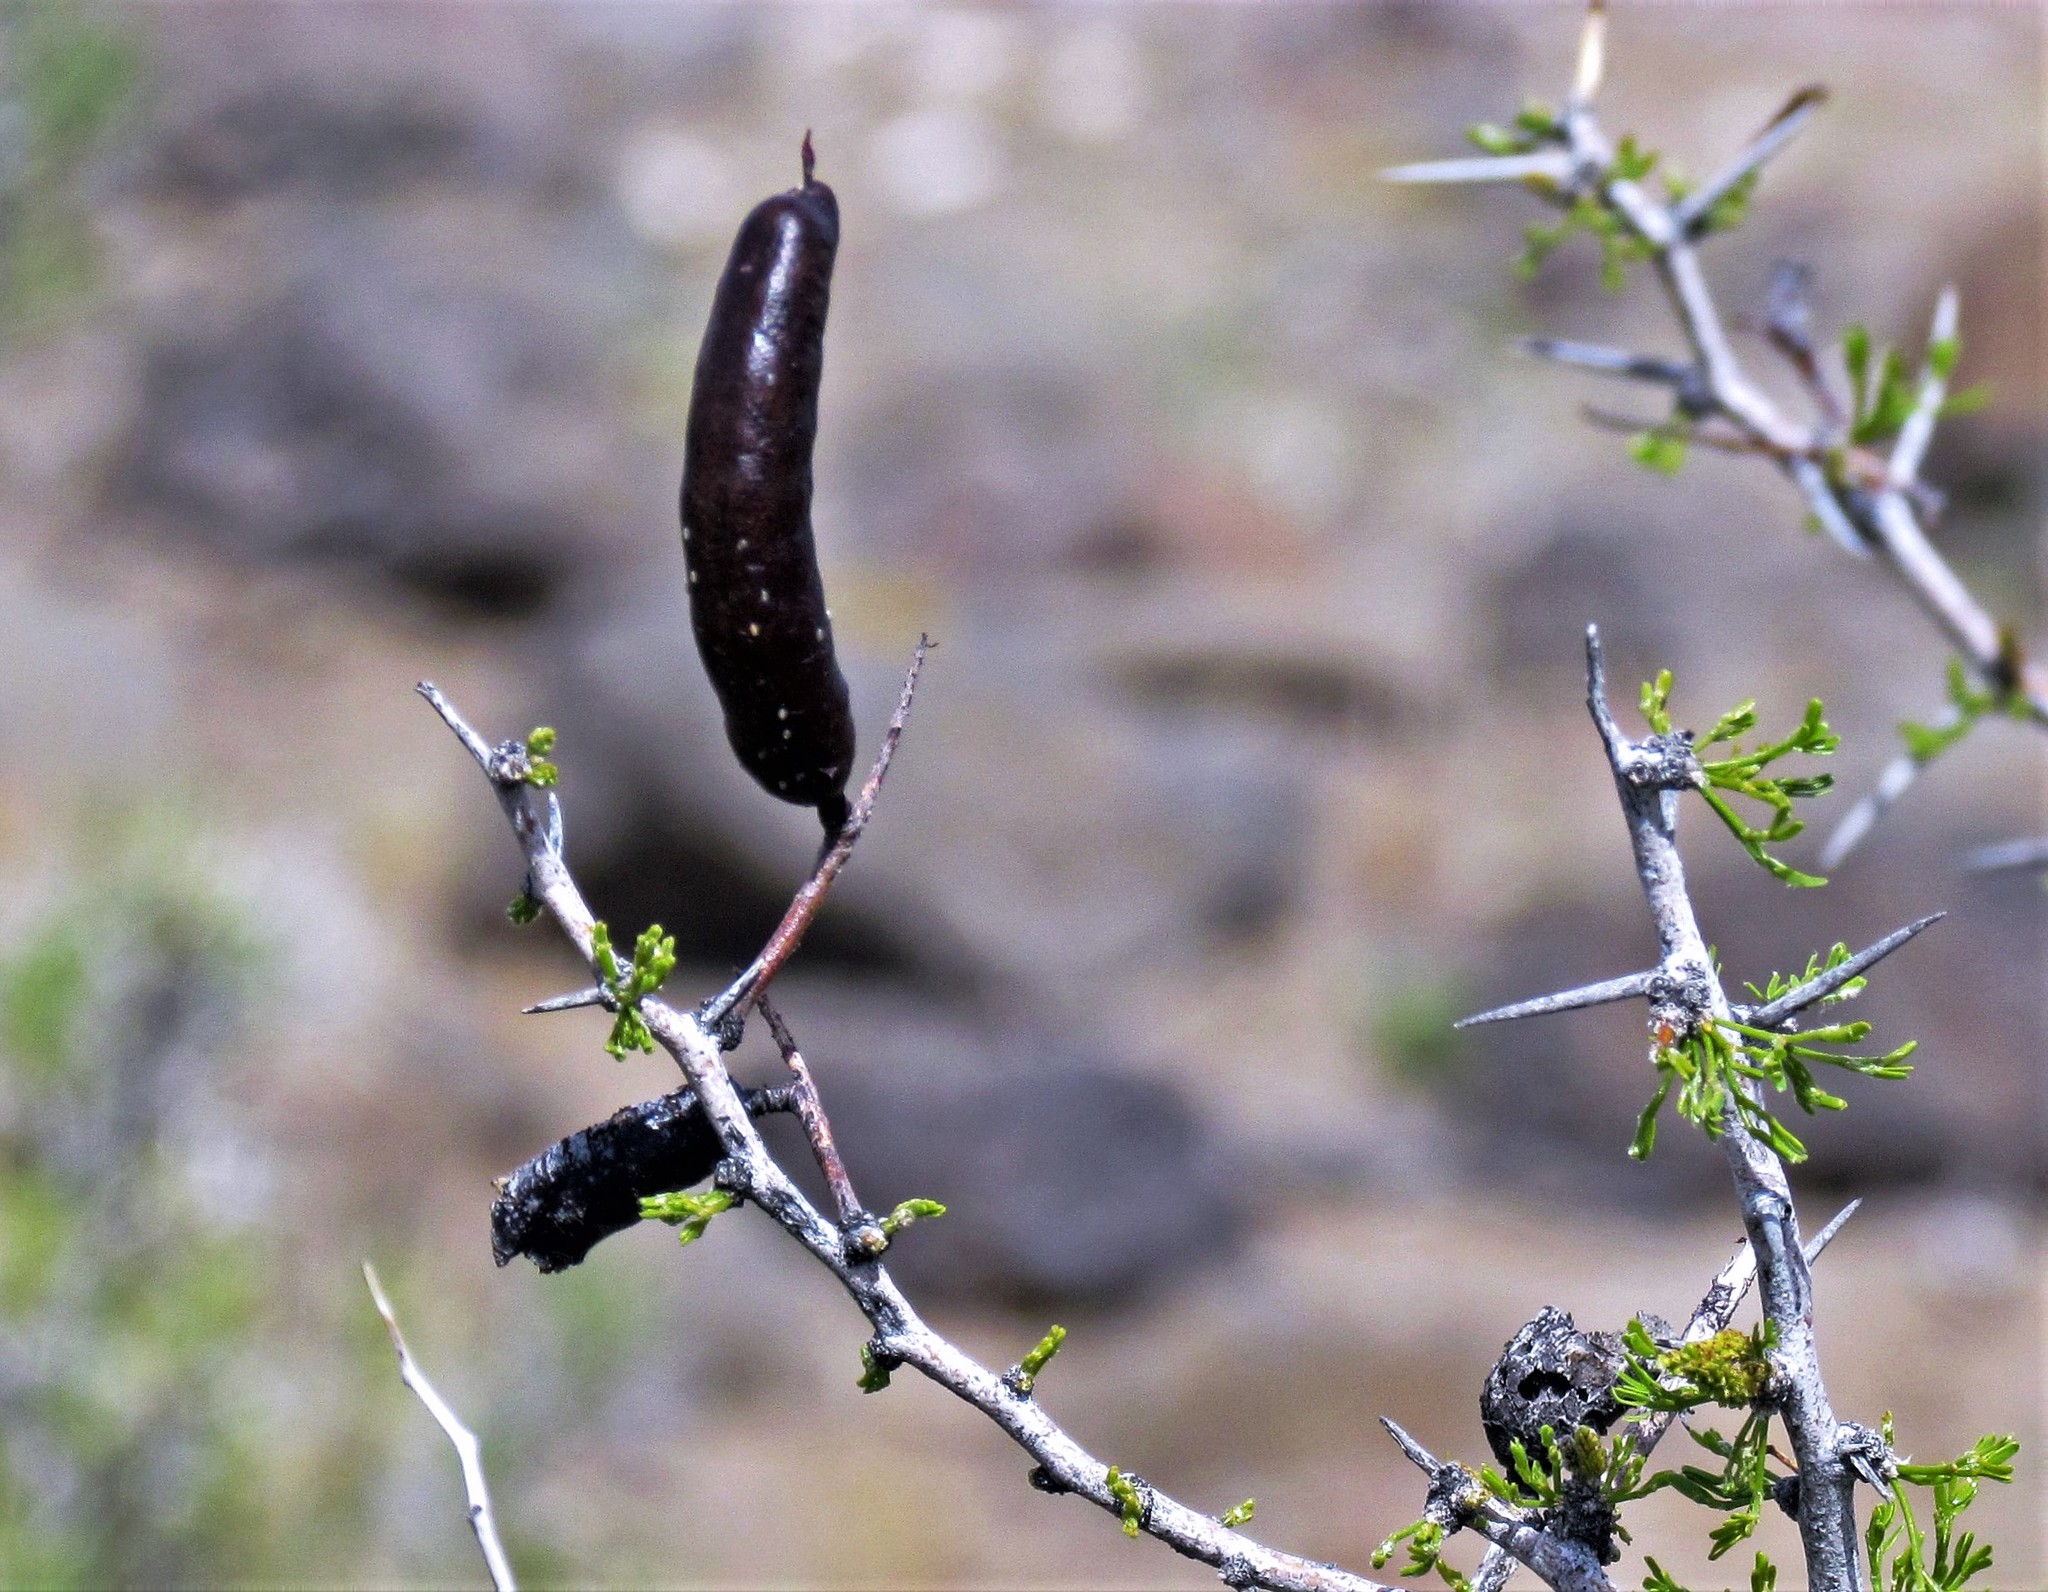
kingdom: Plantae
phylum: Tracheophyta
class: Magnoliopsida
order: Fabales
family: Fabaceae
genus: Prosopis
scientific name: Prosopis denudans
